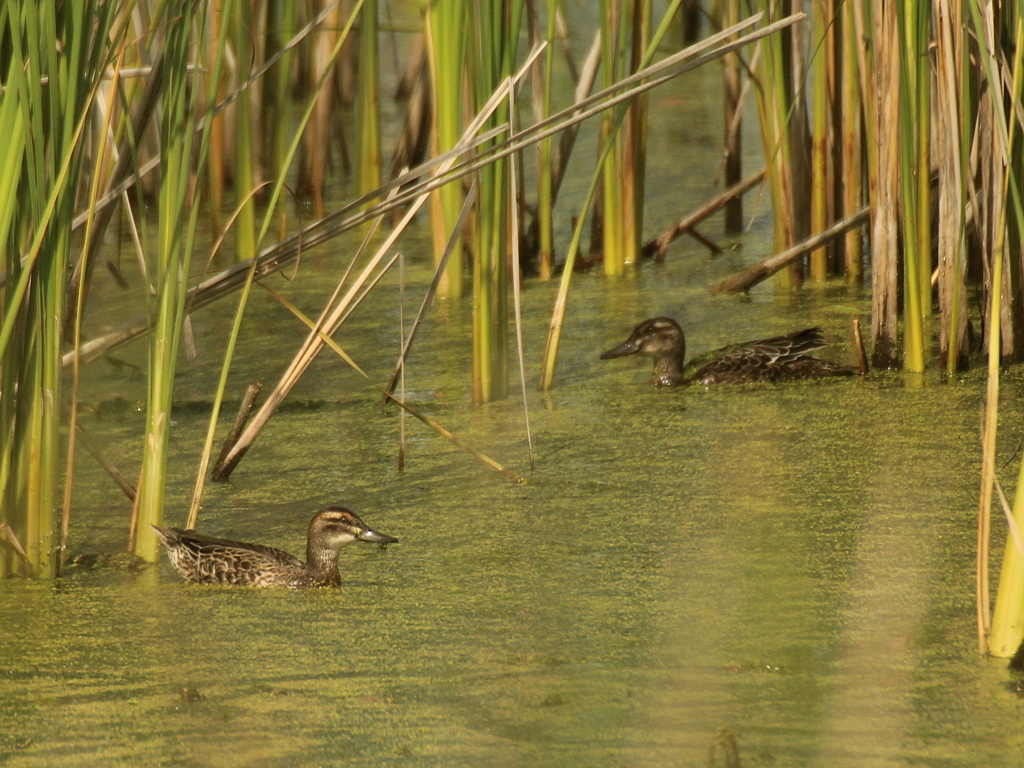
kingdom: Animalia
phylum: Chordata
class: Aves
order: Anseriformes
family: Anatidae
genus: Spatula
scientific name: Spatula querquedula
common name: Garganey
